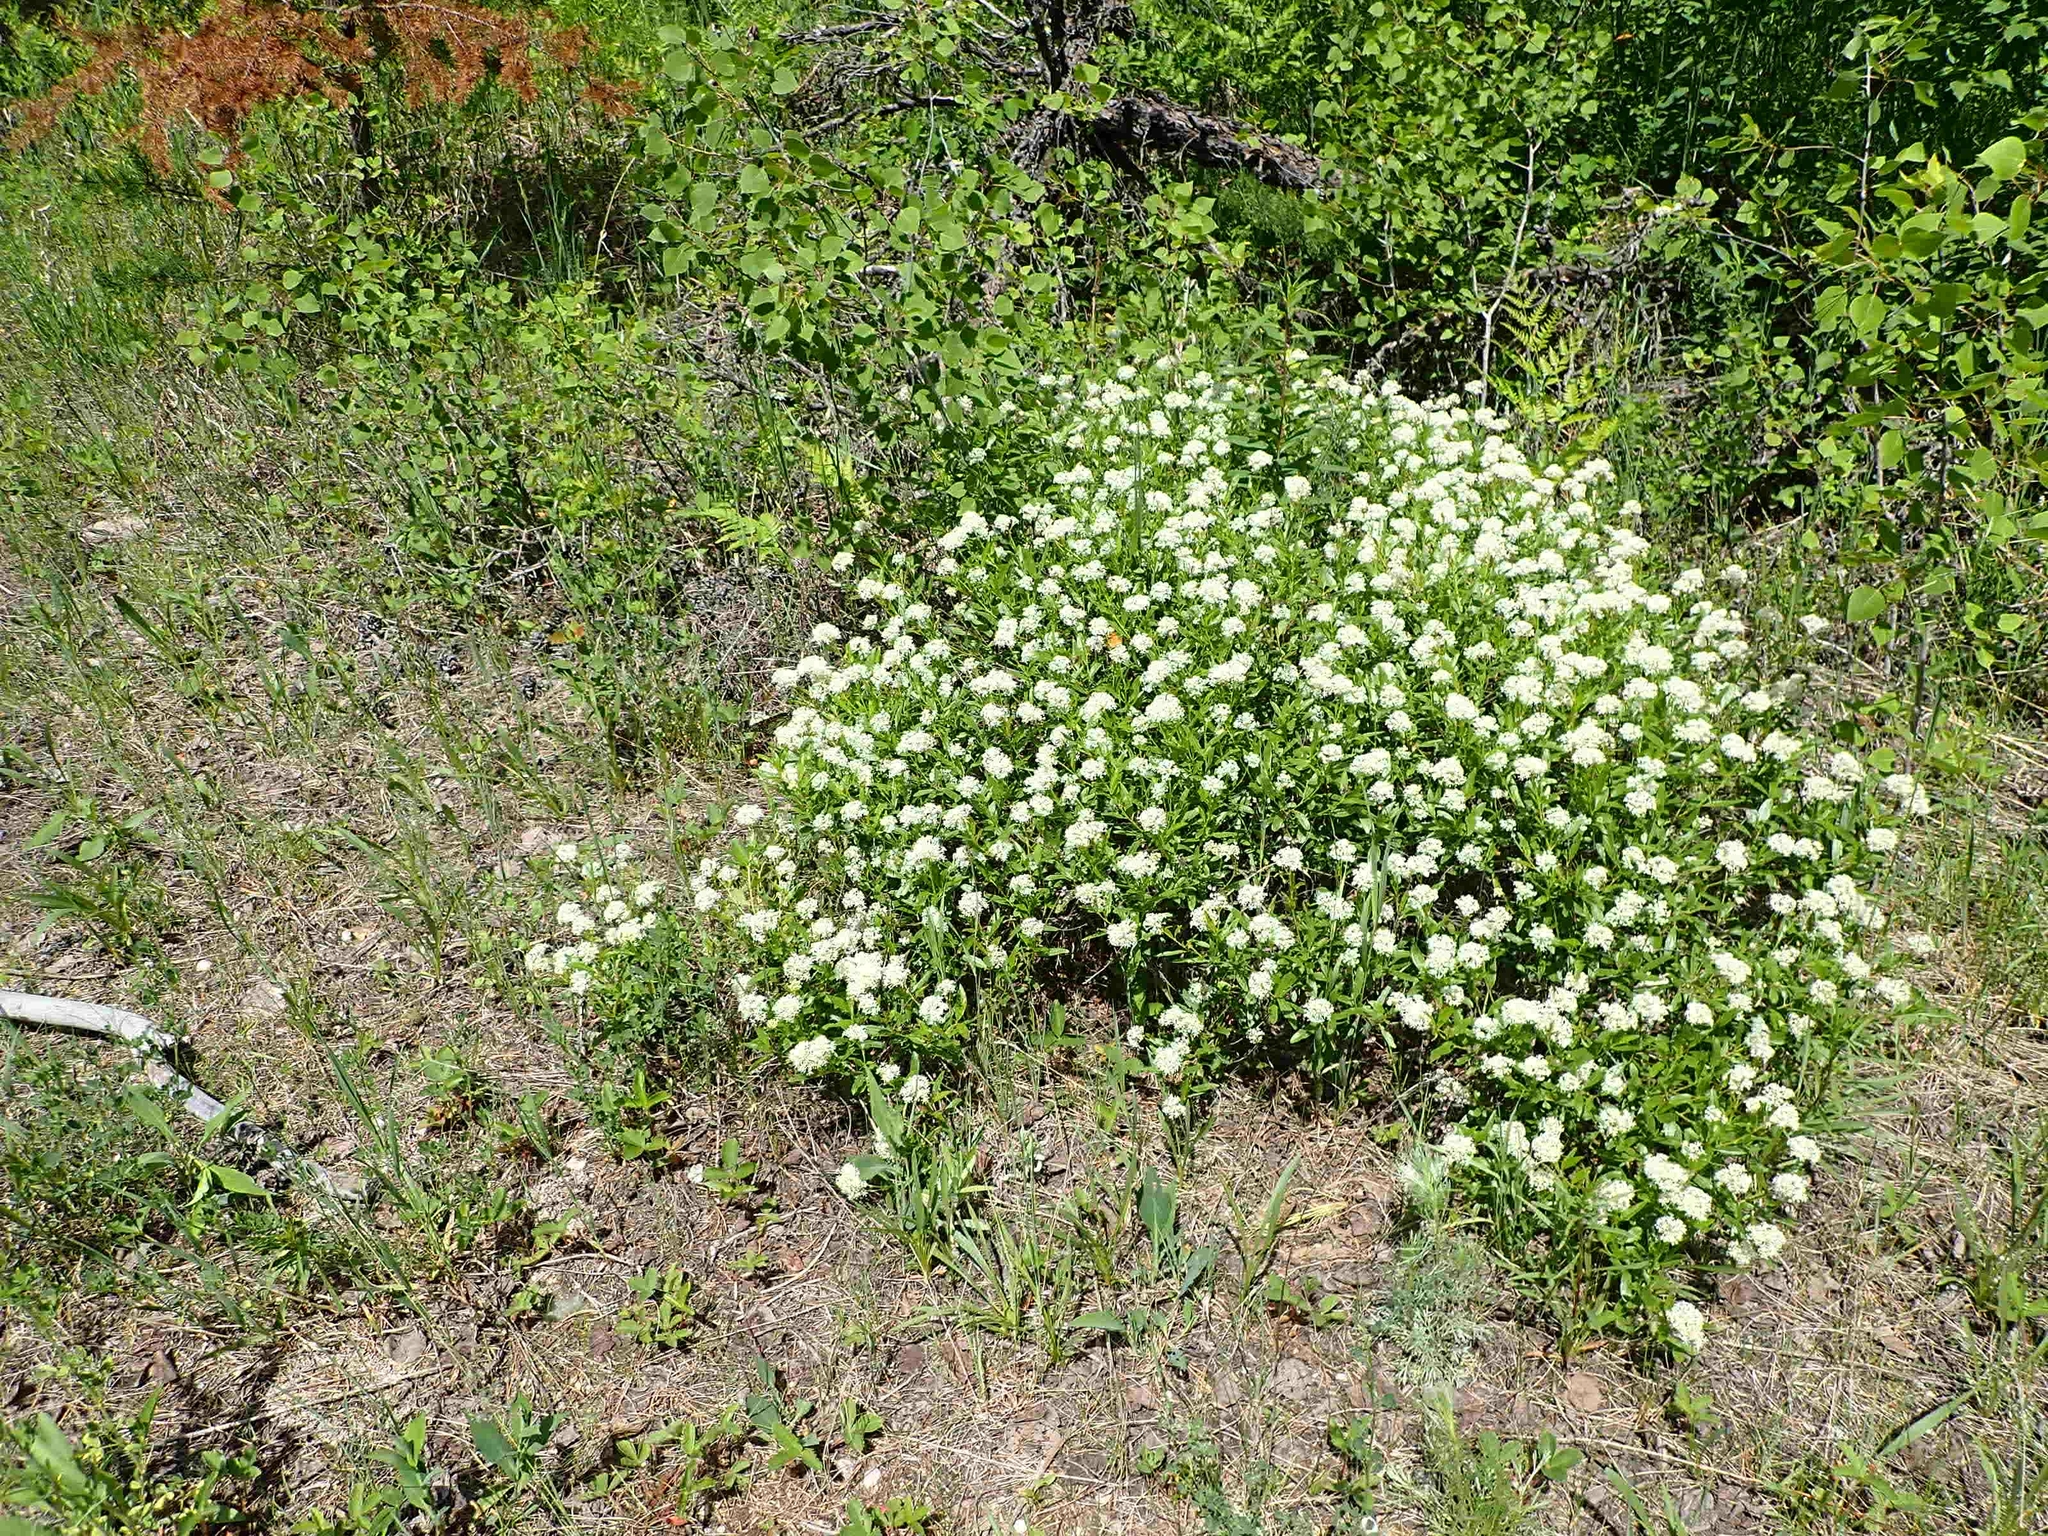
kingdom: Plantae
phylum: Tracheophyta
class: Magnoliopsida
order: Rosales
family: Rhamnaceae
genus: Ceanothus
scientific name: Ceanothus herbaceus
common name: Inland ceanothus
